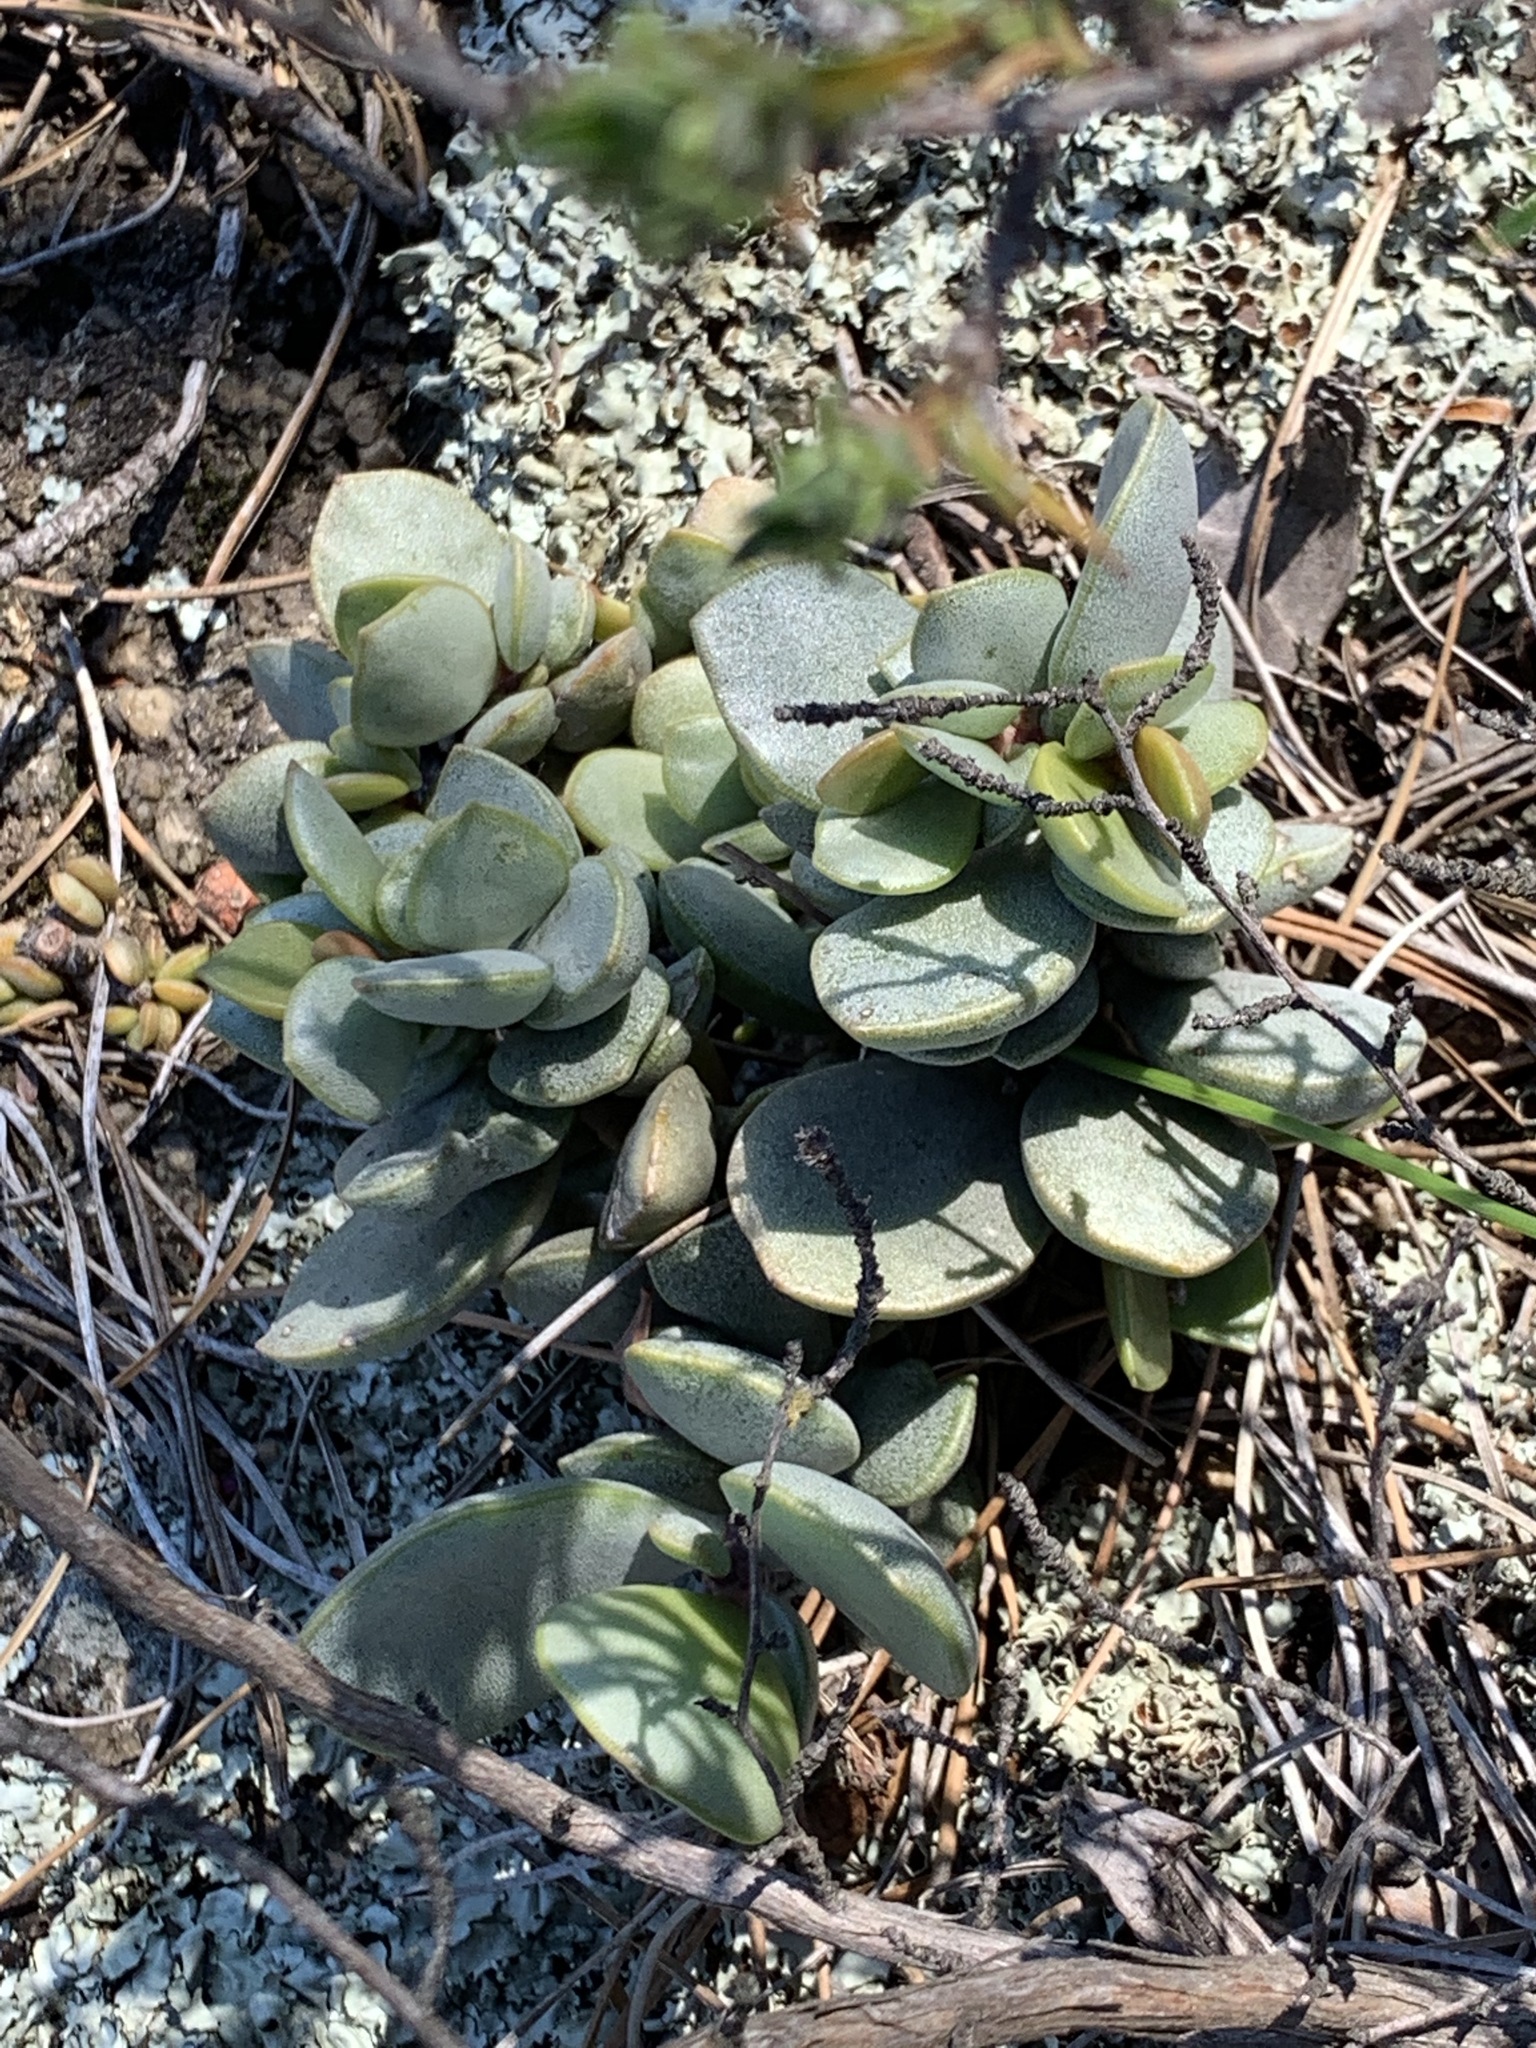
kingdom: Plantae
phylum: Tracheophyta
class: Magnoliopsida
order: Saxifragales
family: Crassulaceae
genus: Adromischus
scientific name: Adromischus hemisphaericus
